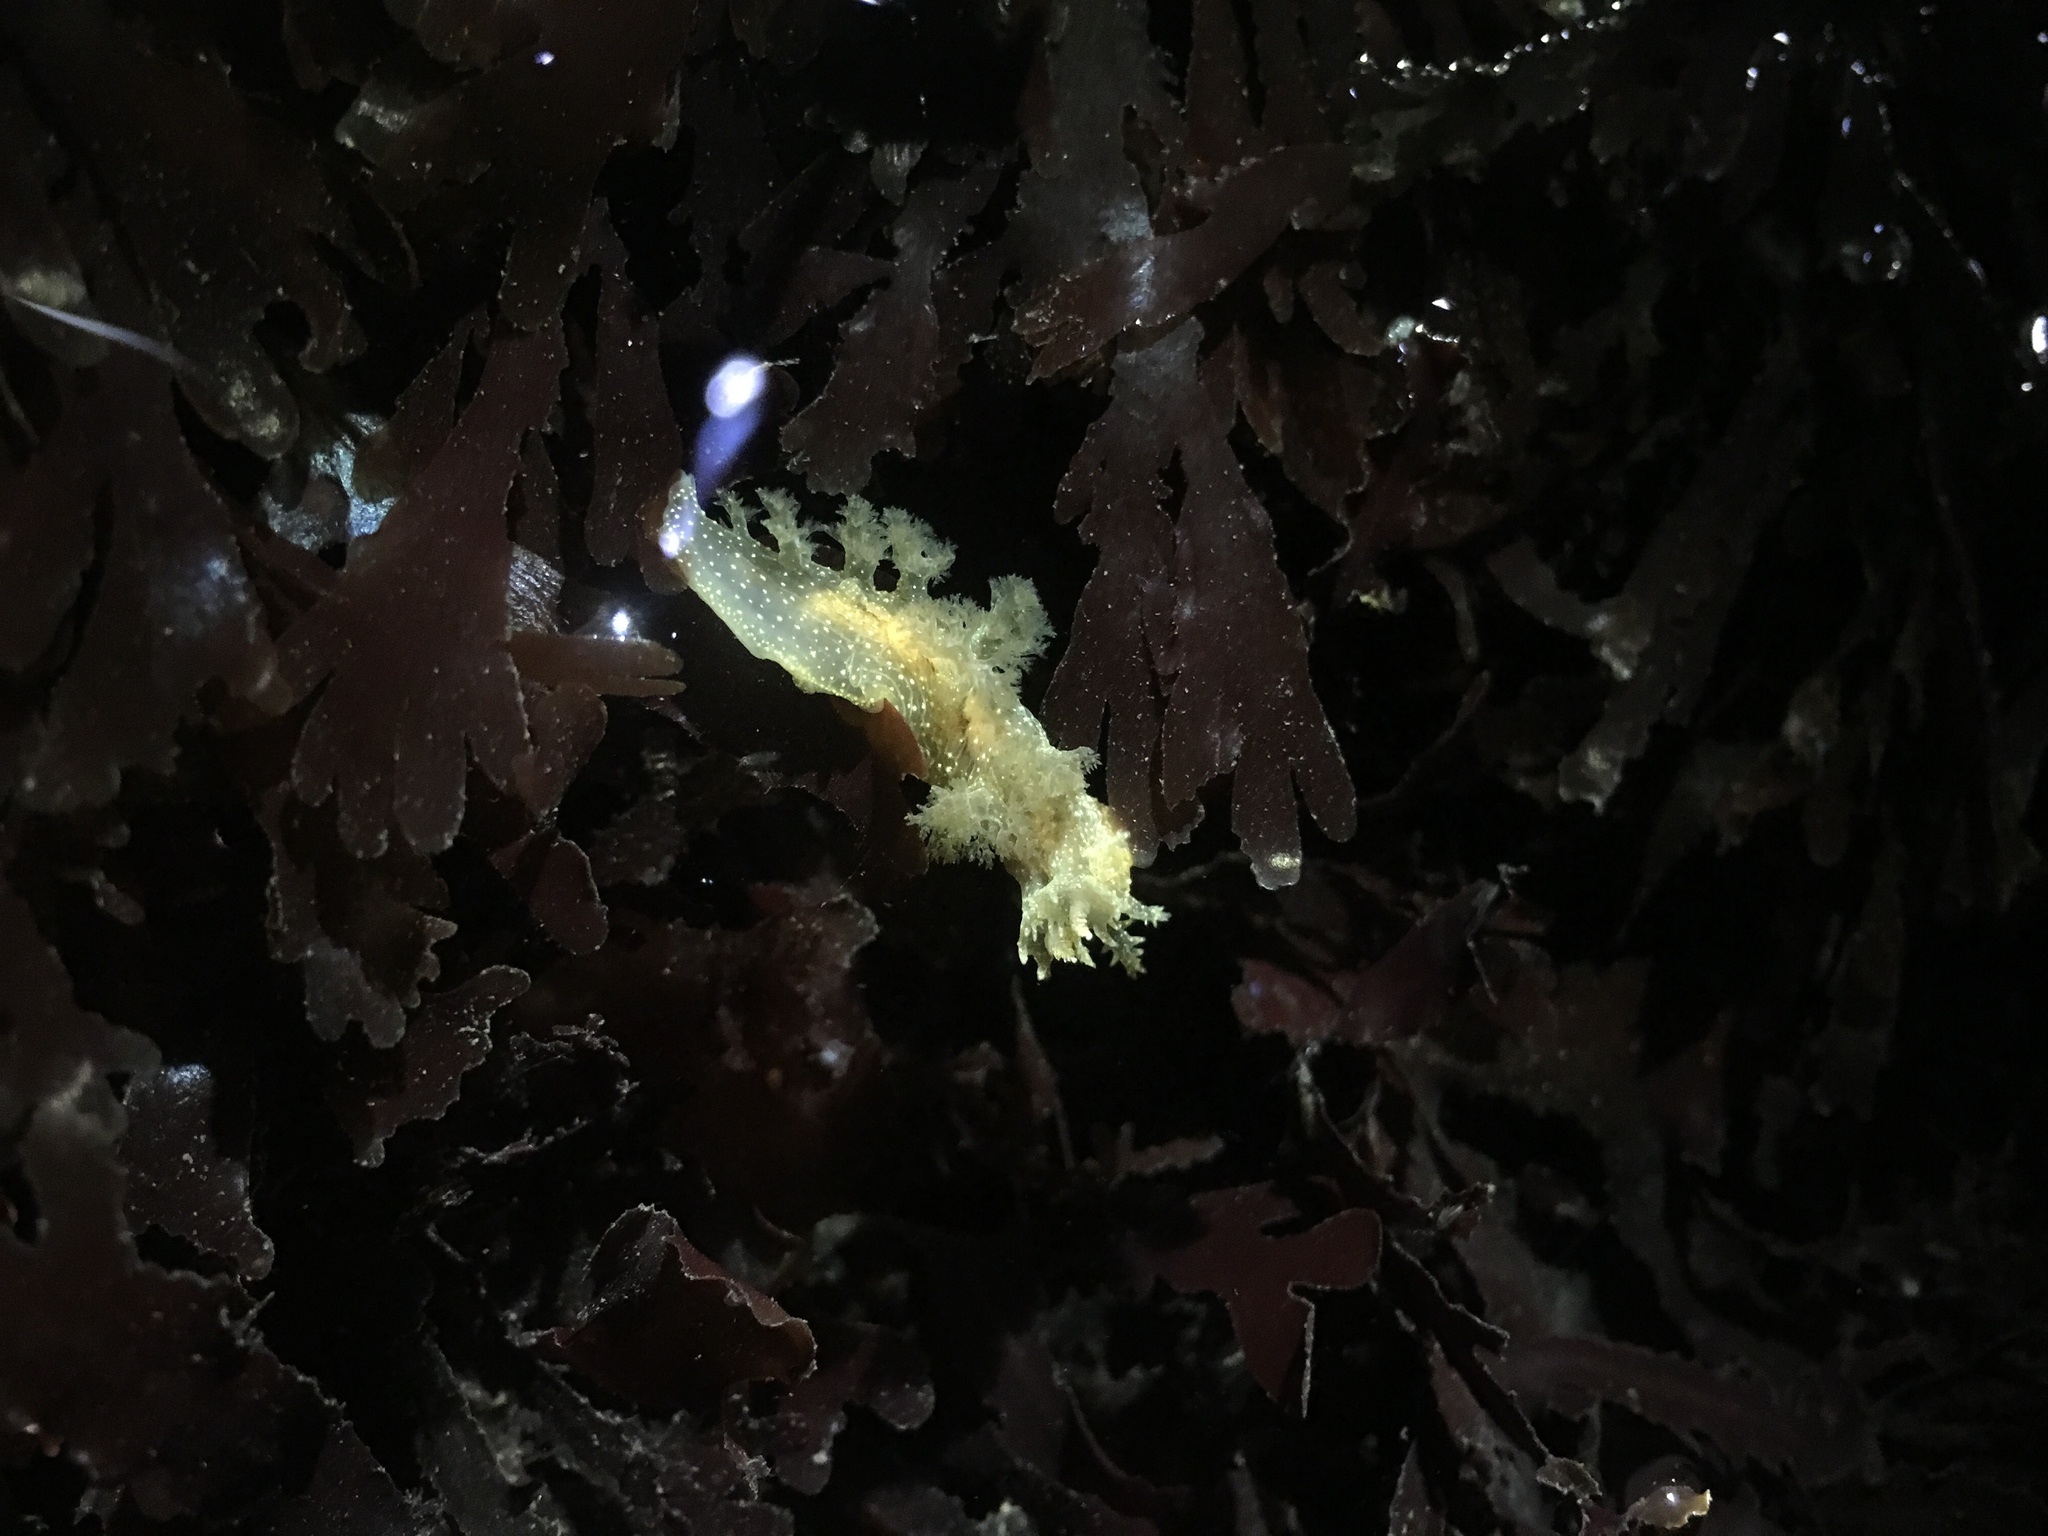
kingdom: Animalia
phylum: Mollusca
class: Gastropoda
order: Nudibranchia
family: Dendronotidae
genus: Dendronotus
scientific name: Dendronotus subramosus
